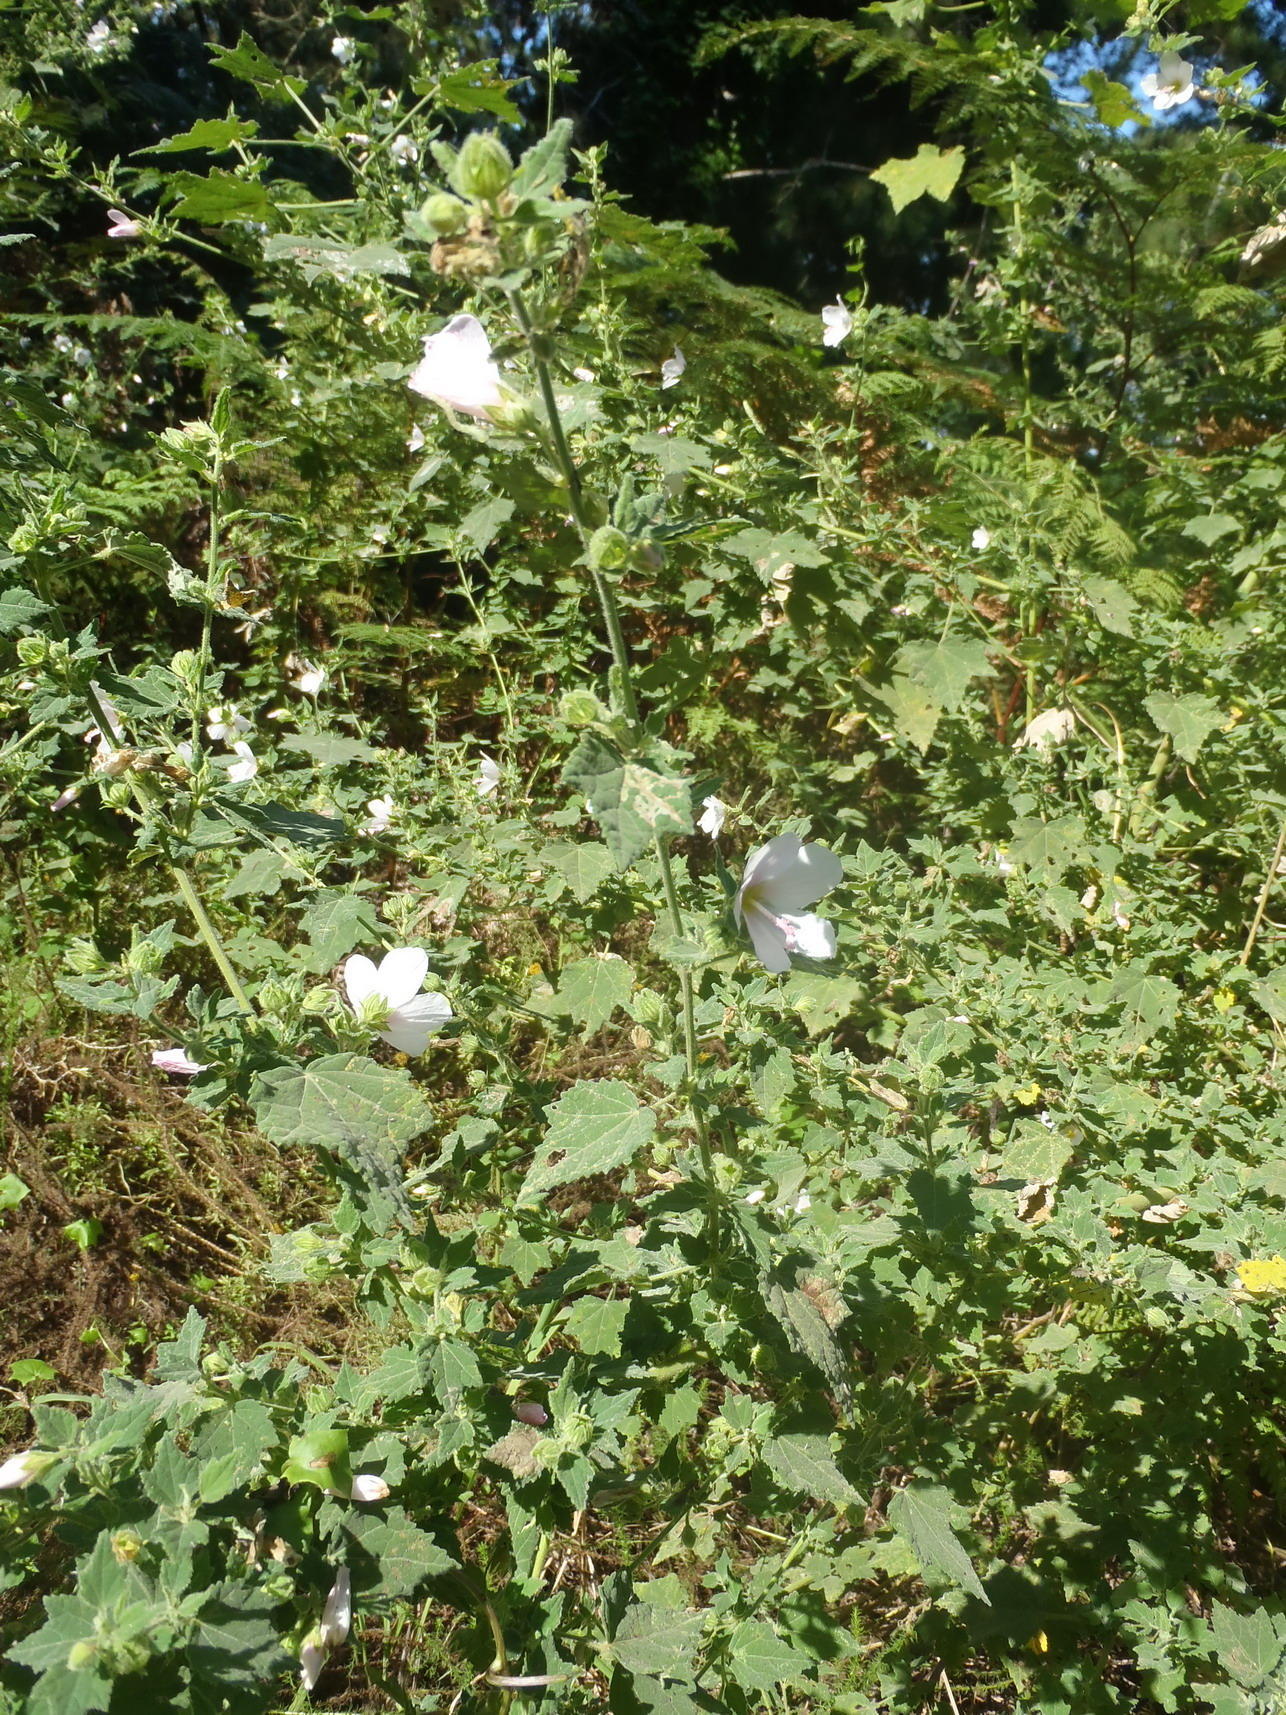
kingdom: Plantae
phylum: Tracheophyta
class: Magnoliopsida
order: Malvales
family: Malvaceae
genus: Pavonia
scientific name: Pavonia columella
